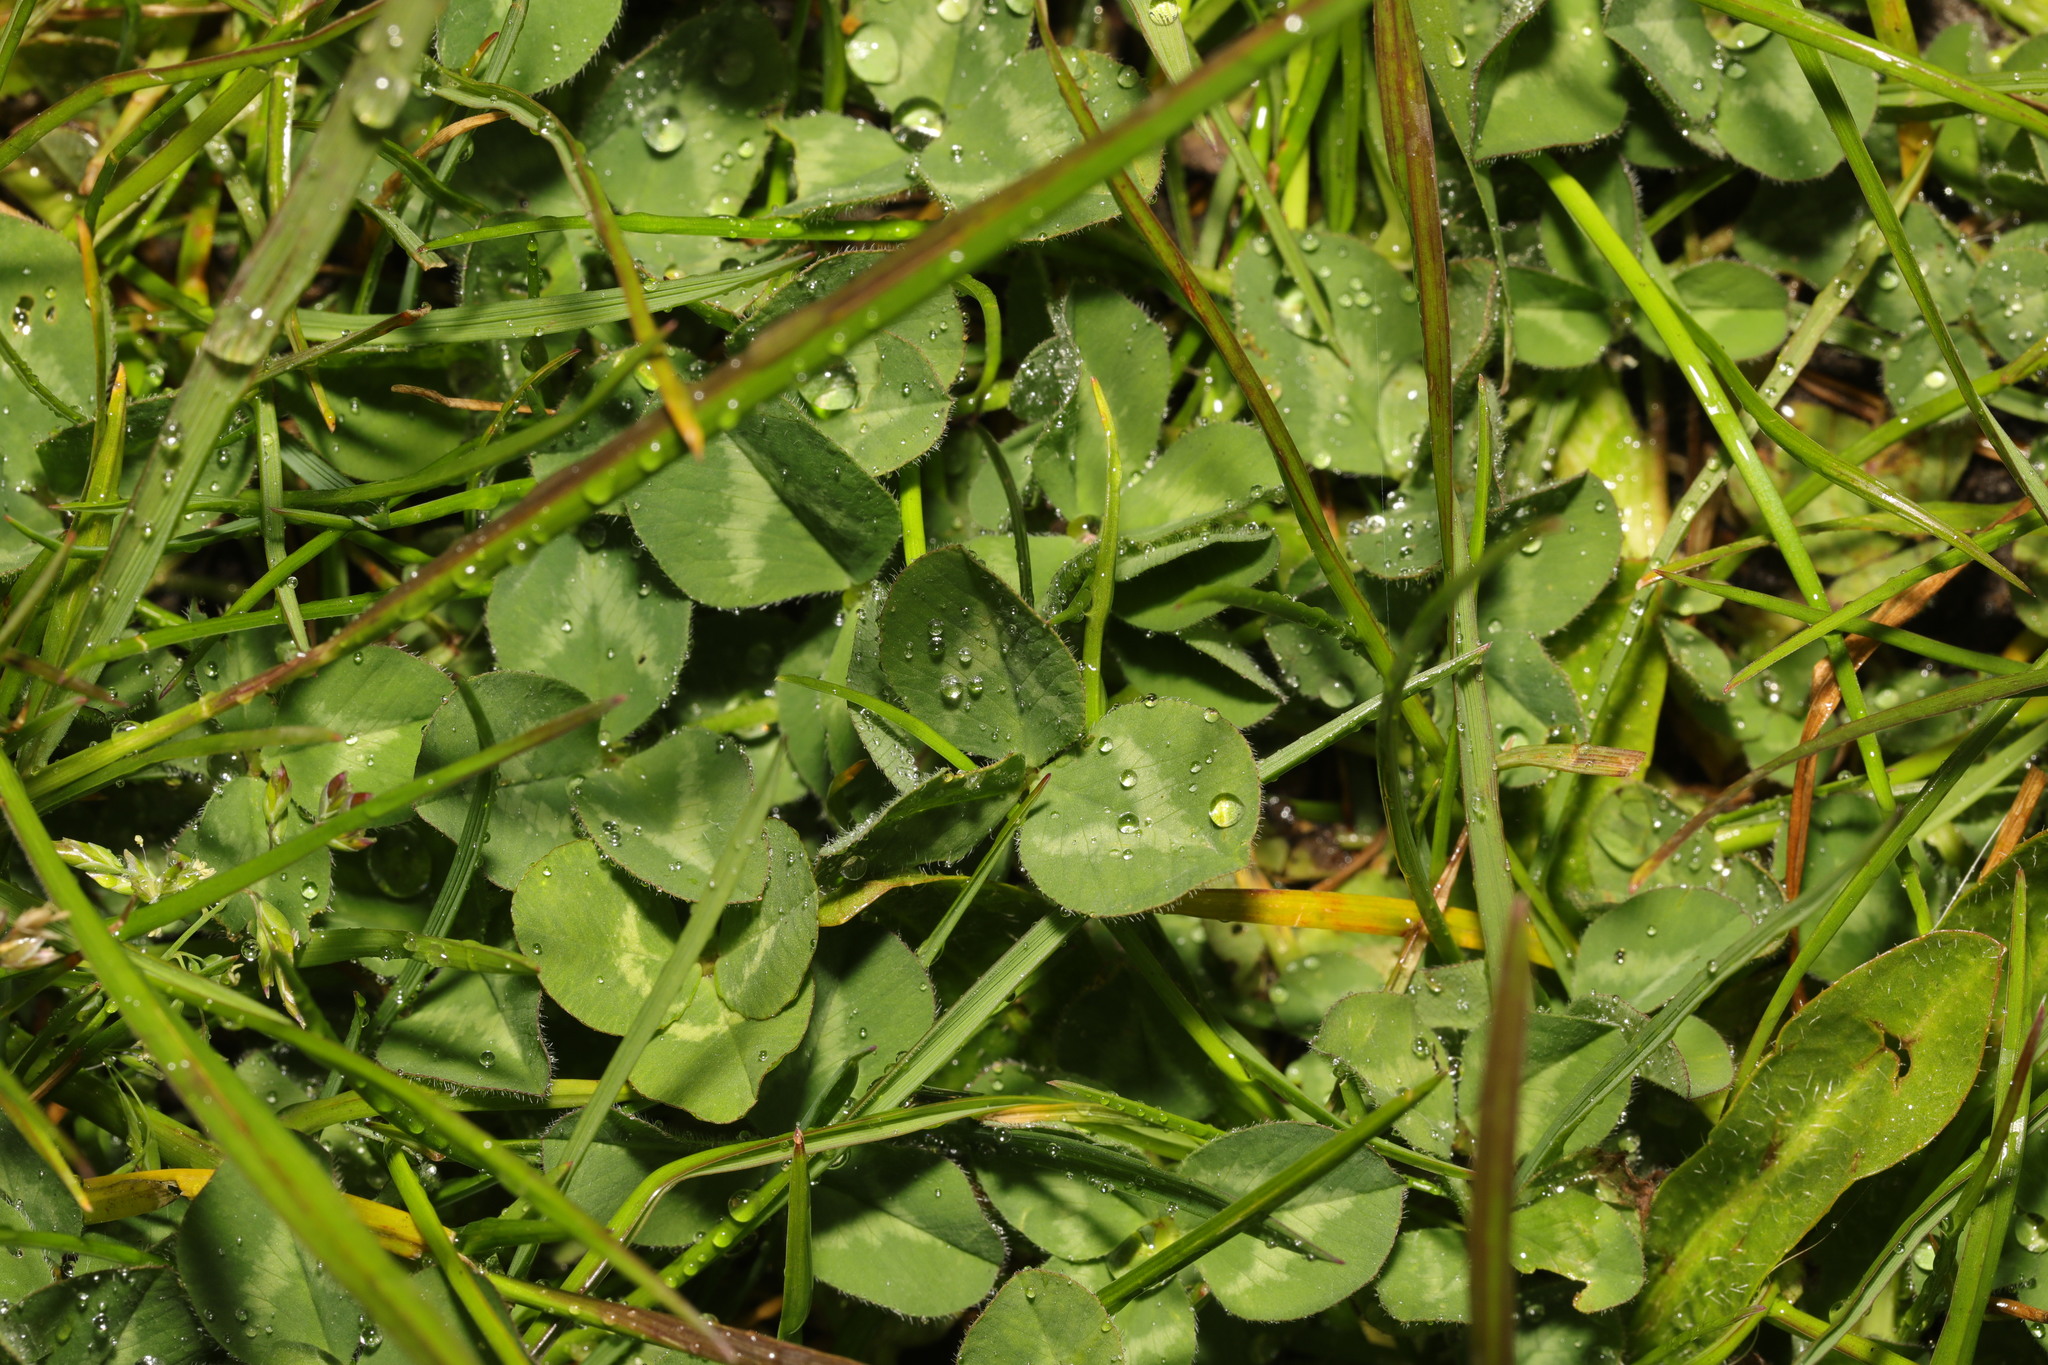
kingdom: Plantae
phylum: Tracheophyta
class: Magnoliopsida
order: Fabales
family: Fabaceae
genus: Trifolium
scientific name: Trifolium pratense
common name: Red clover
